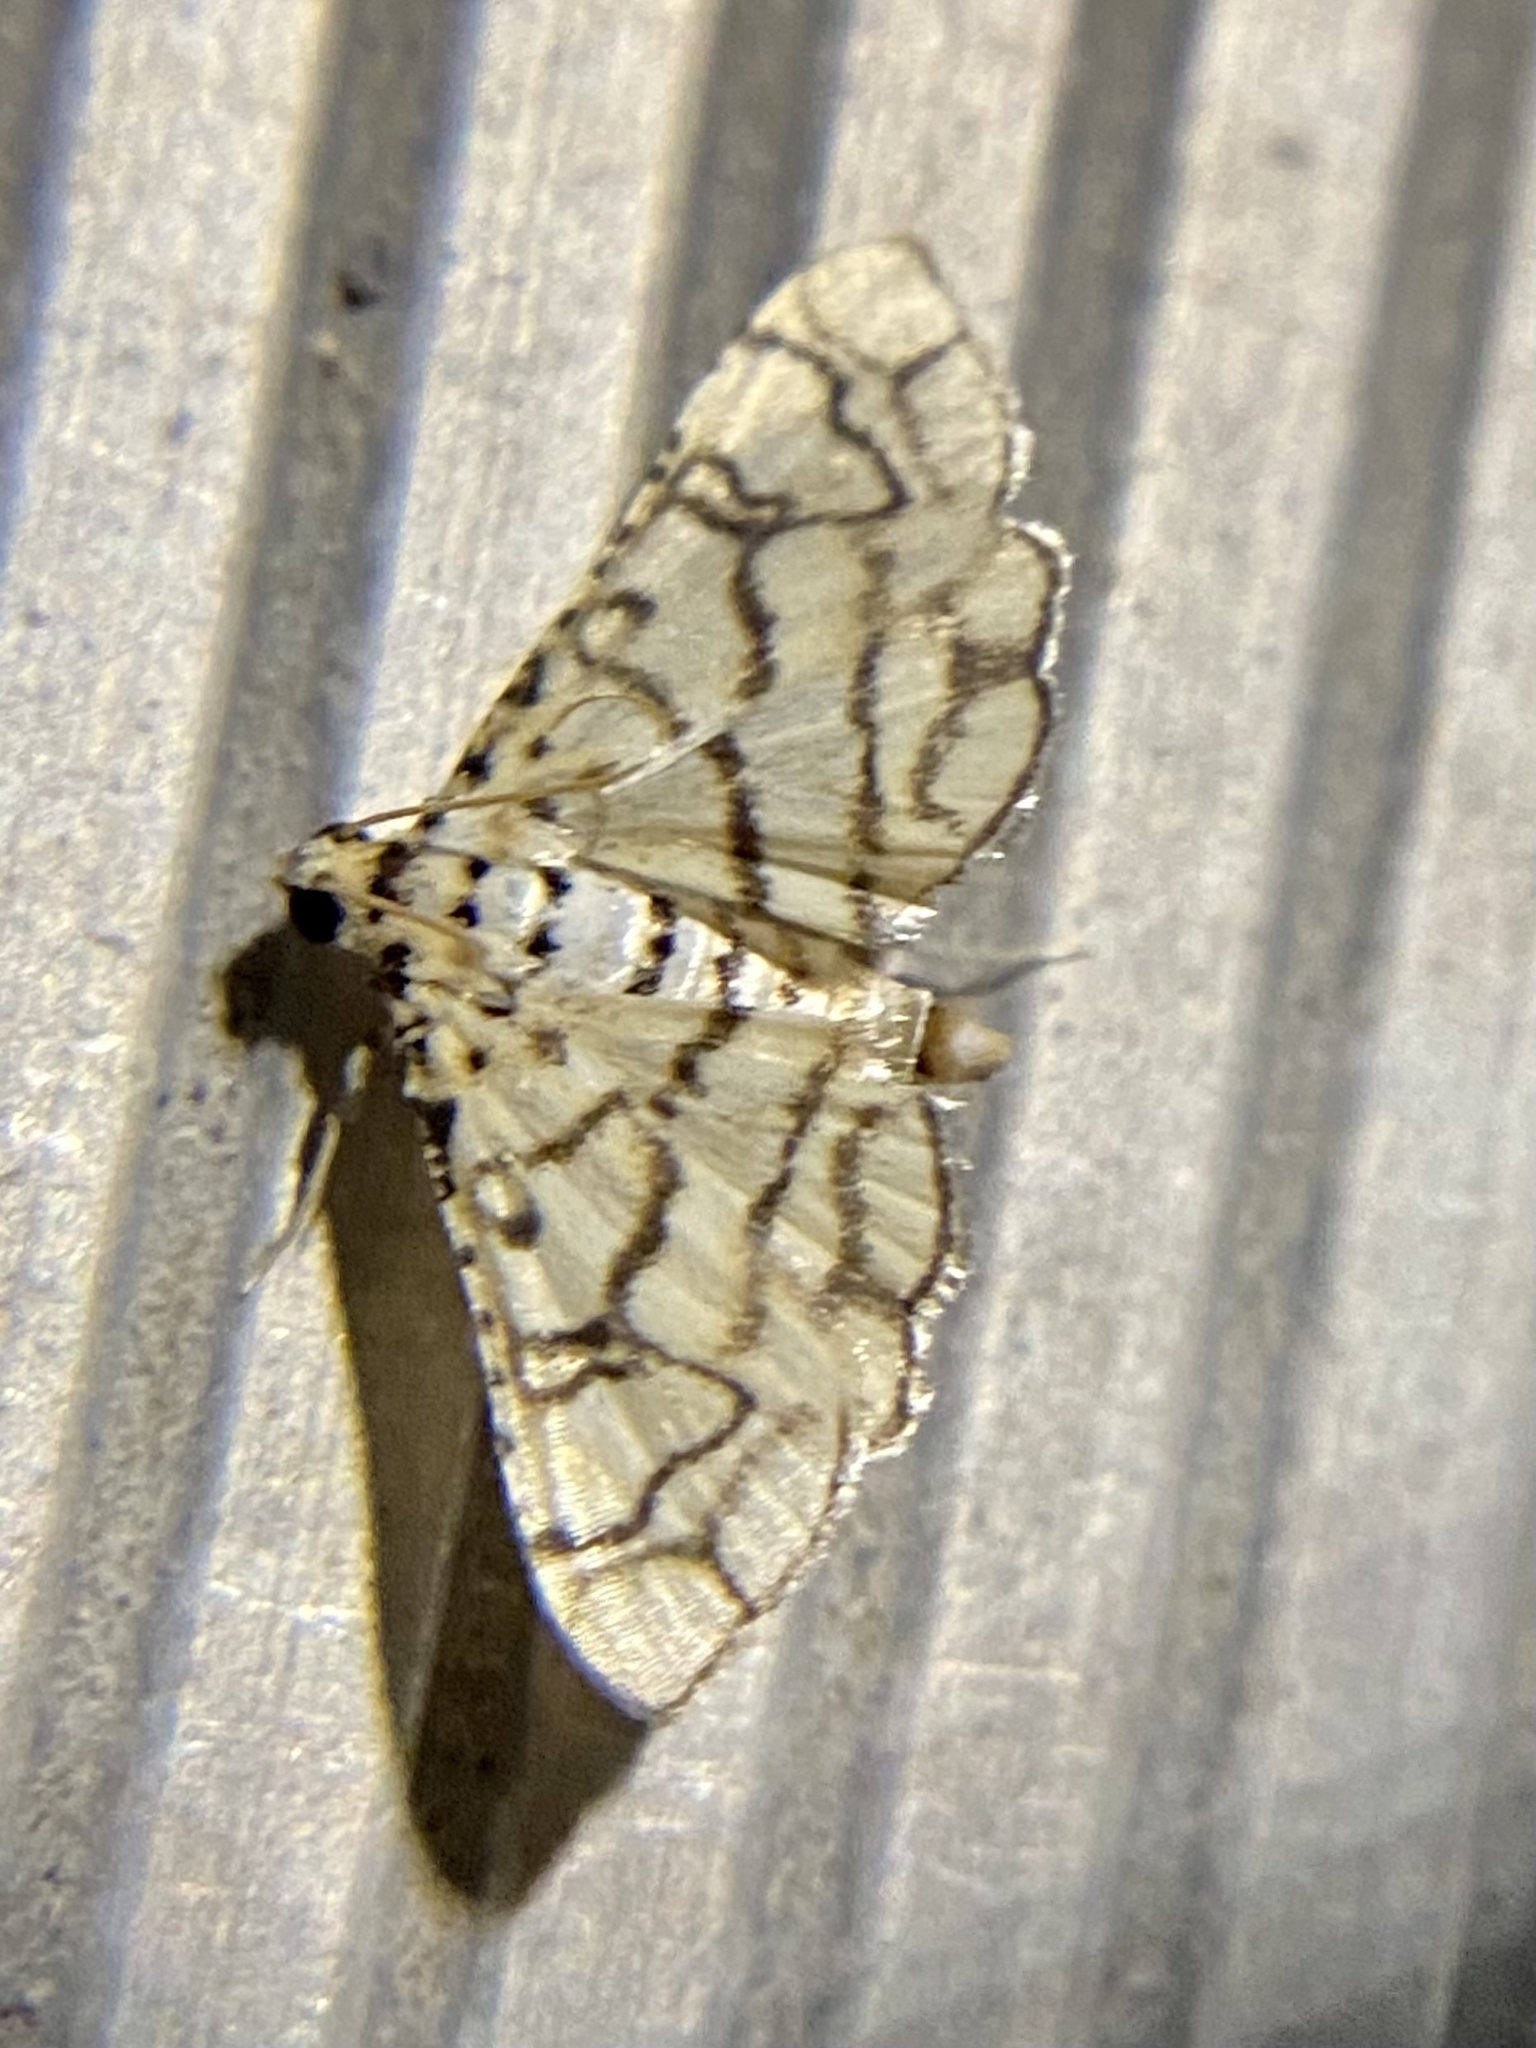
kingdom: Animalia
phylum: Arthropoda
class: Insecta
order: Lepidoptera
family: Crambidae
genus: Hileithia
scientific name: Hileithia rehamalis
